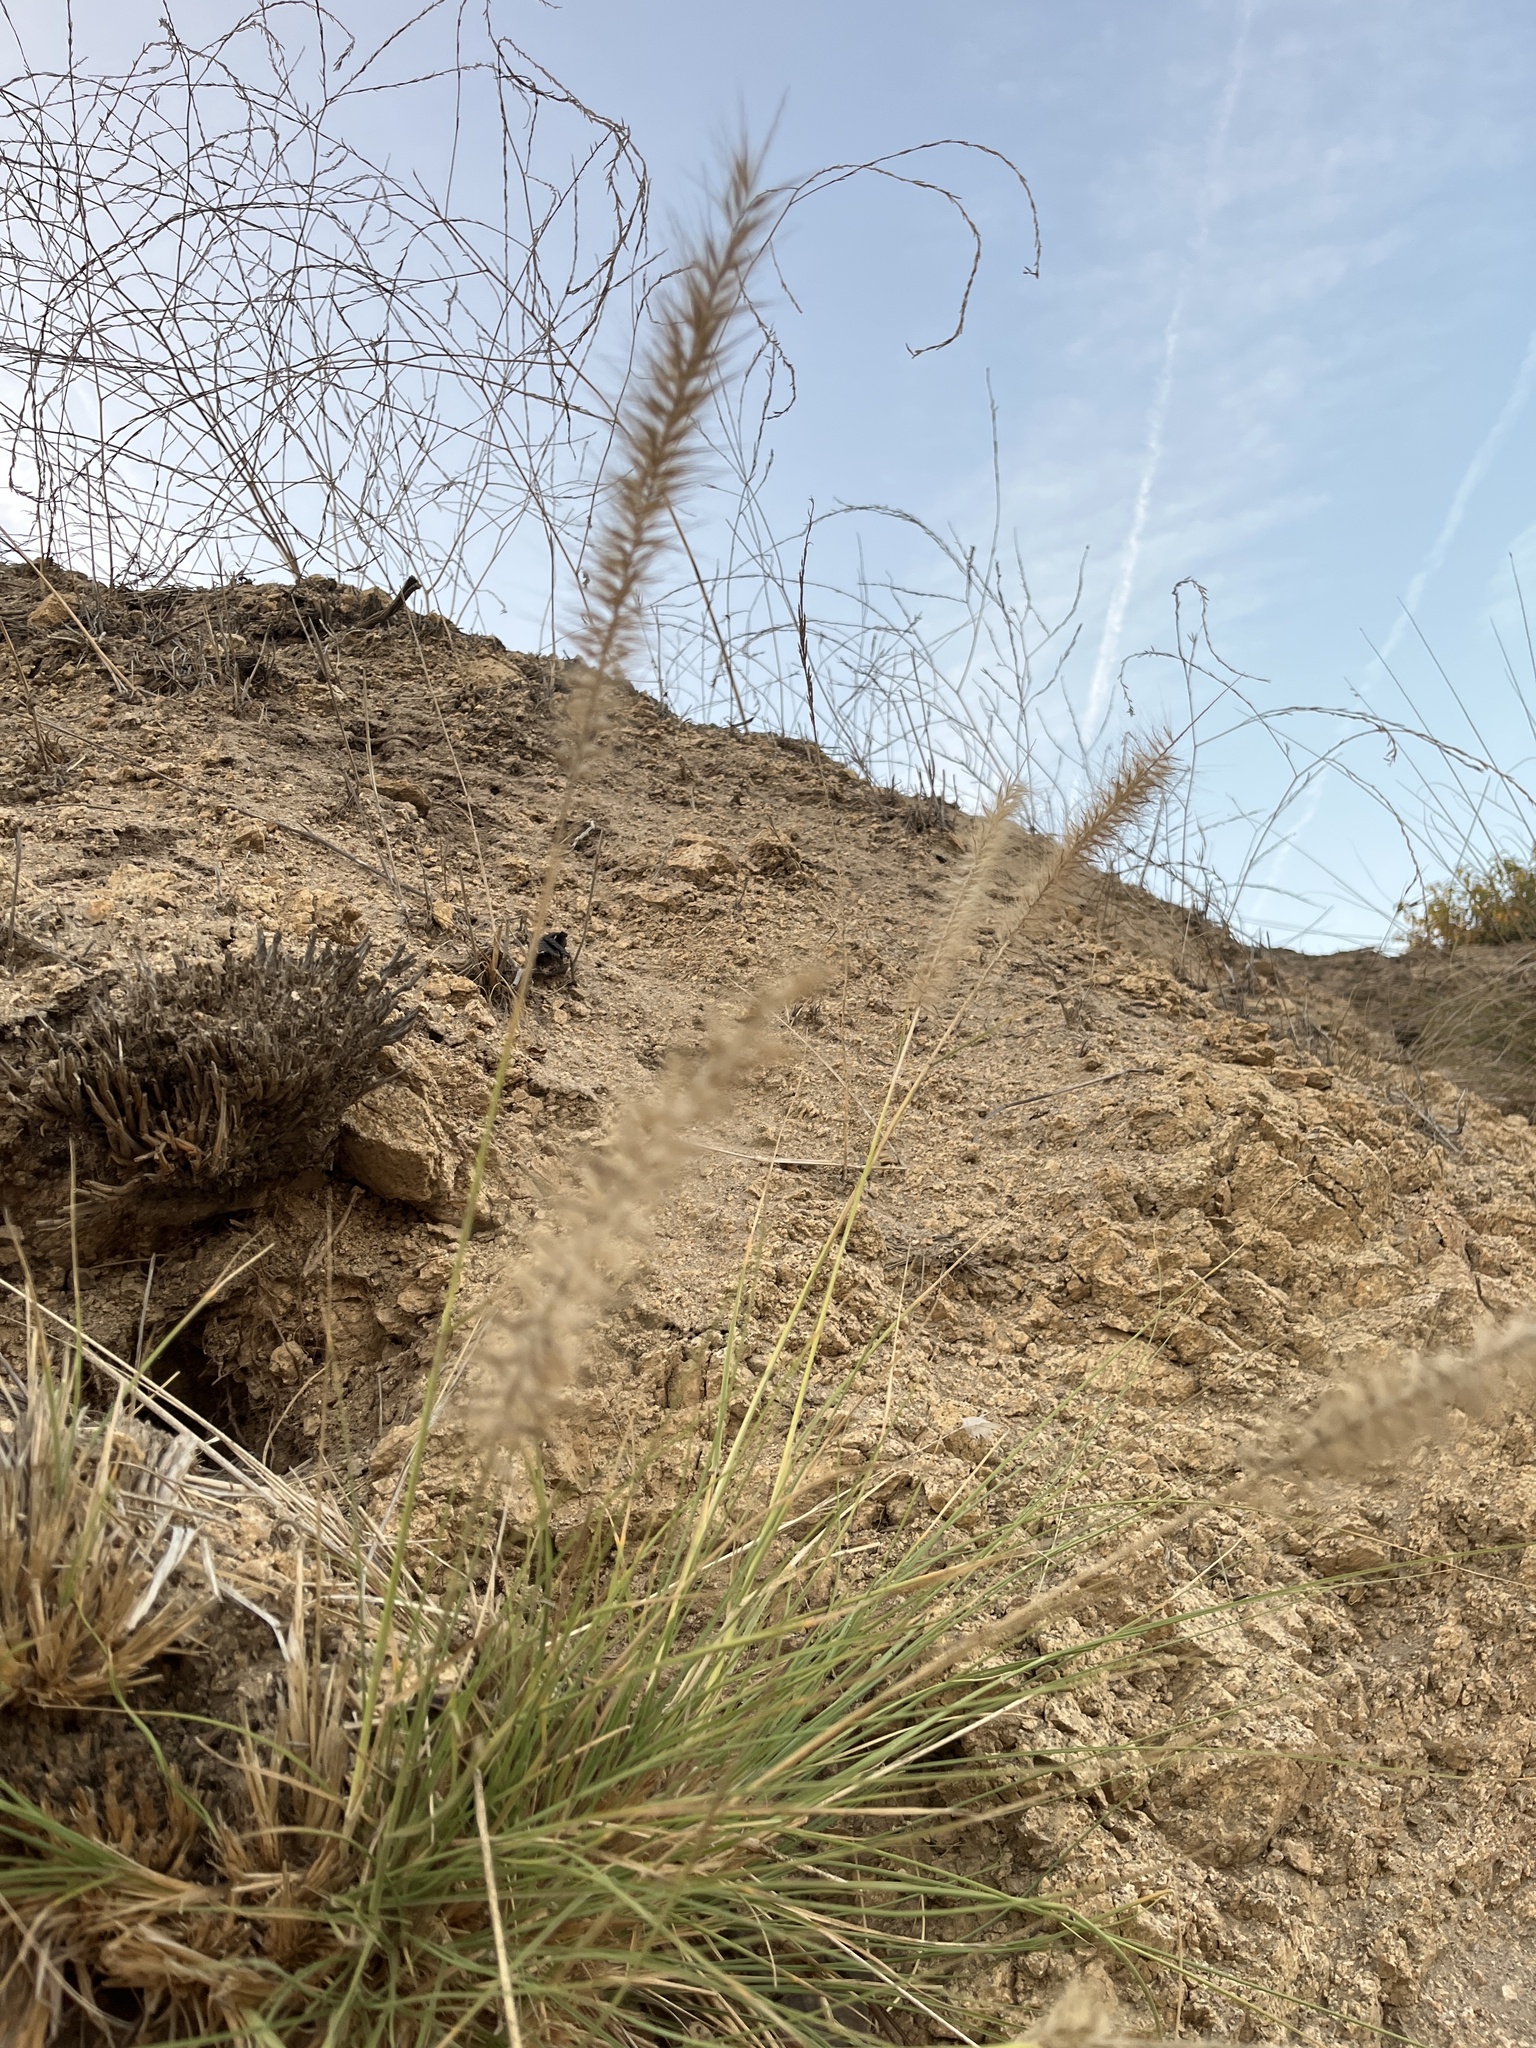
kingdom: Plantae
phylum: Tracheophyta
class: Liliopsida
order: Poales
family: Poaceae
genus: Cenchrus
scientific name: Cenchrus setaceus
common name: Crimson fountaingrass
